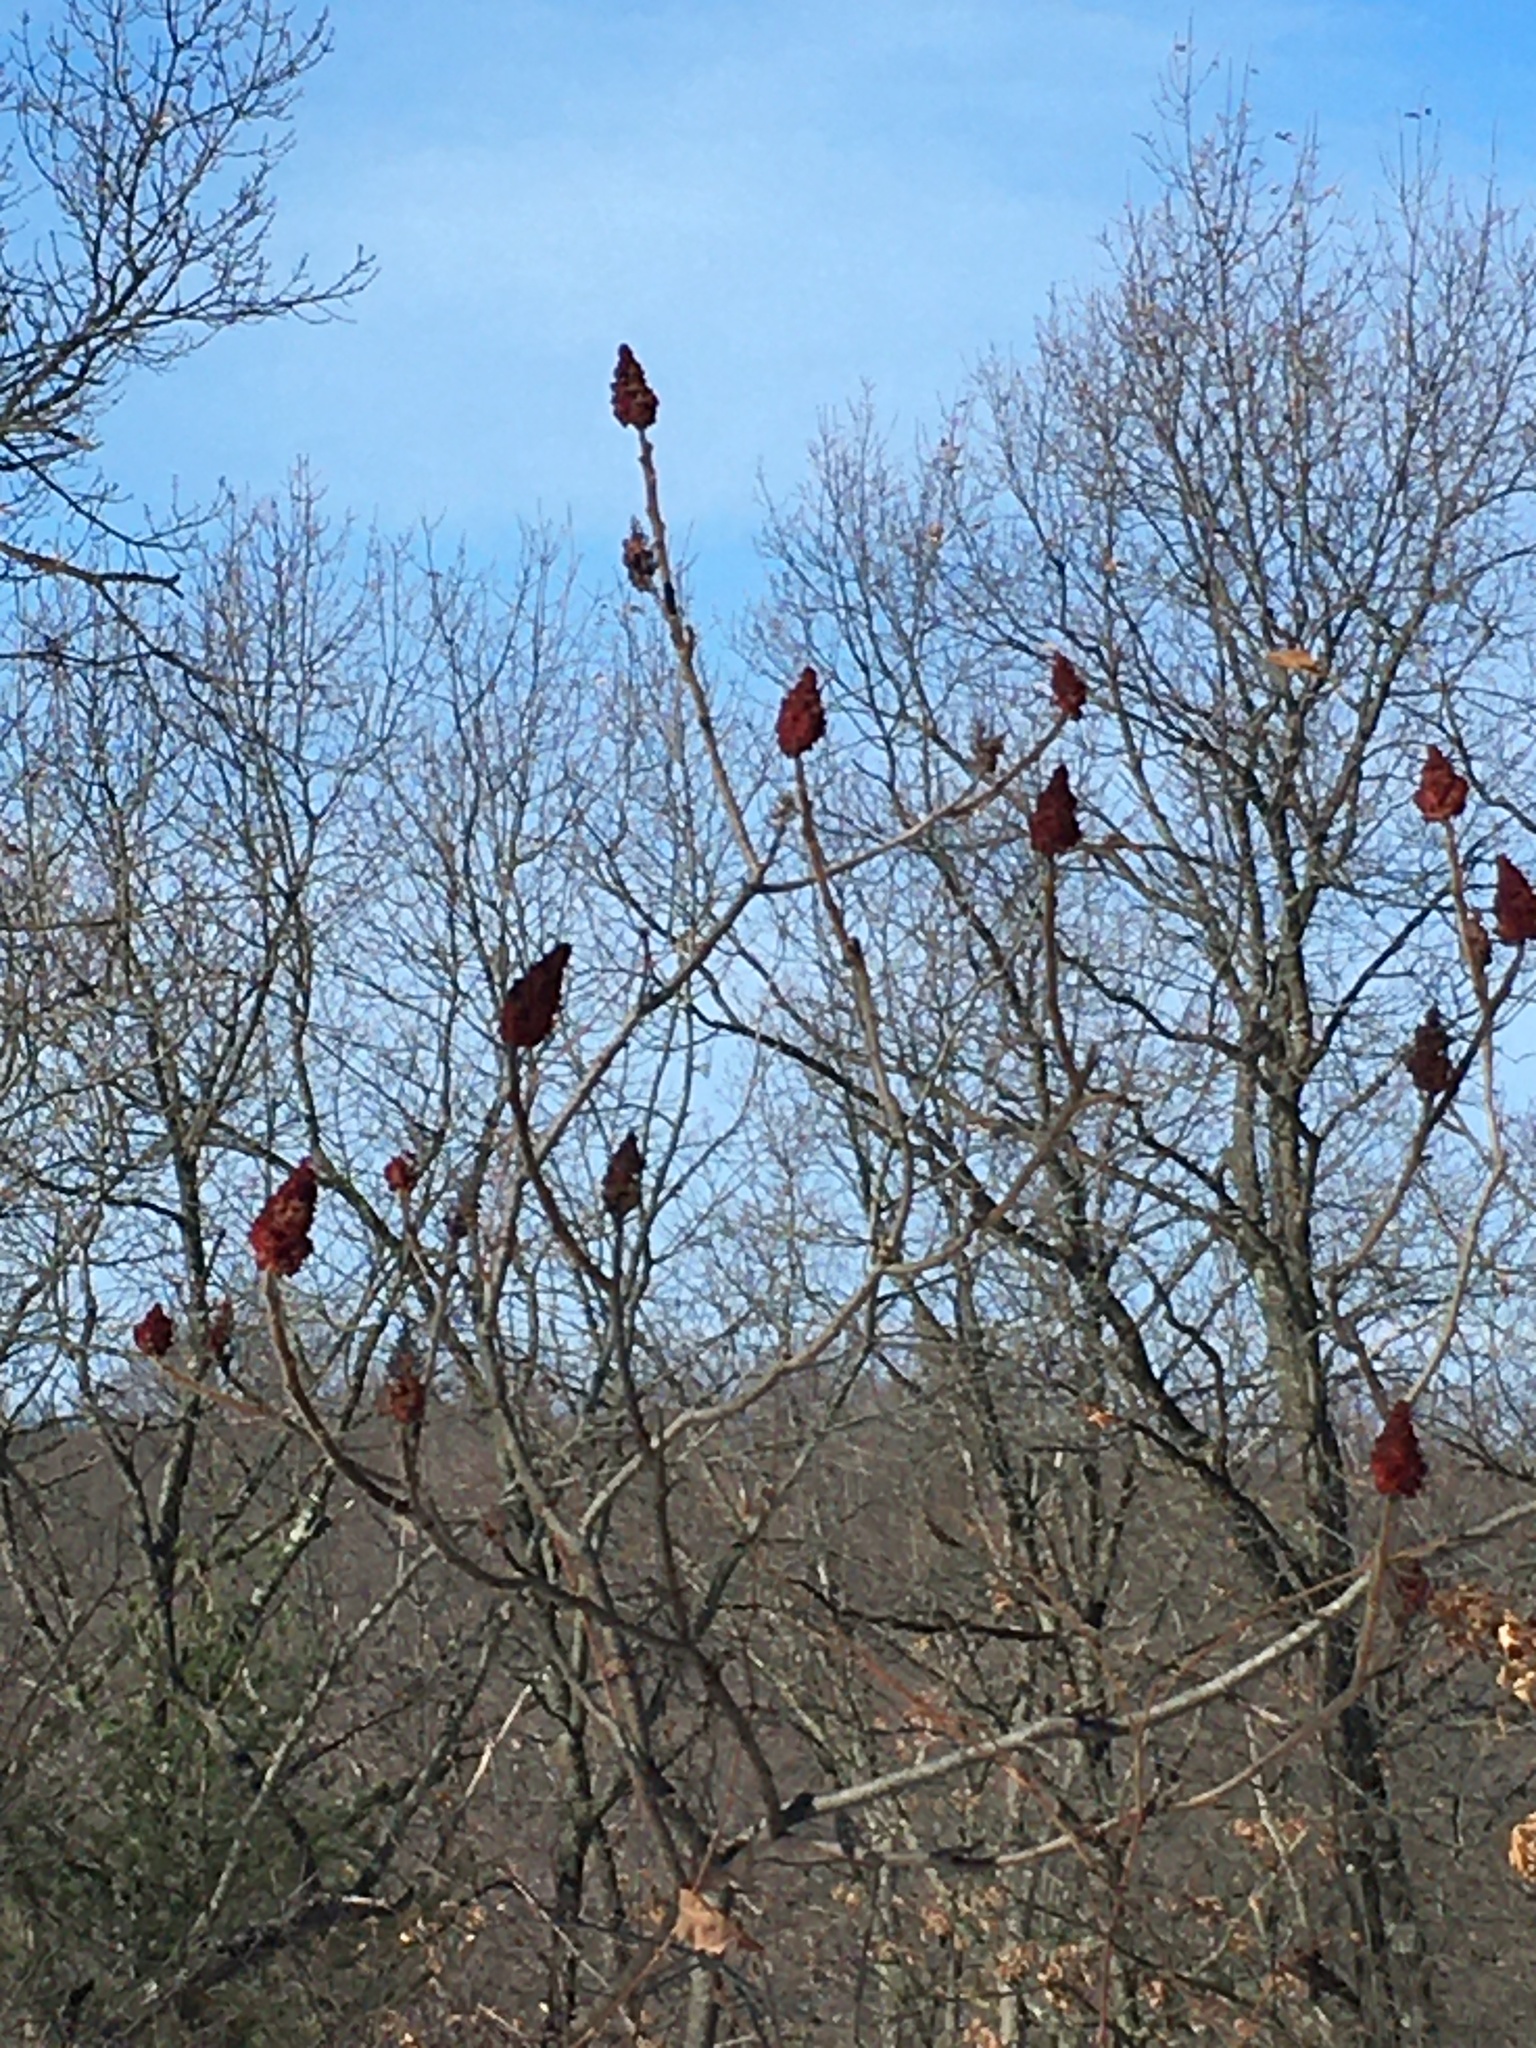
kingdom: Plantae
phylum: Tracheophyta
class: Magnoliopsida
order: Sapindales
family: Anacardiaceae
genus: Rhus
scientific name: Rhus typhina
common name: Staghorn sumac
